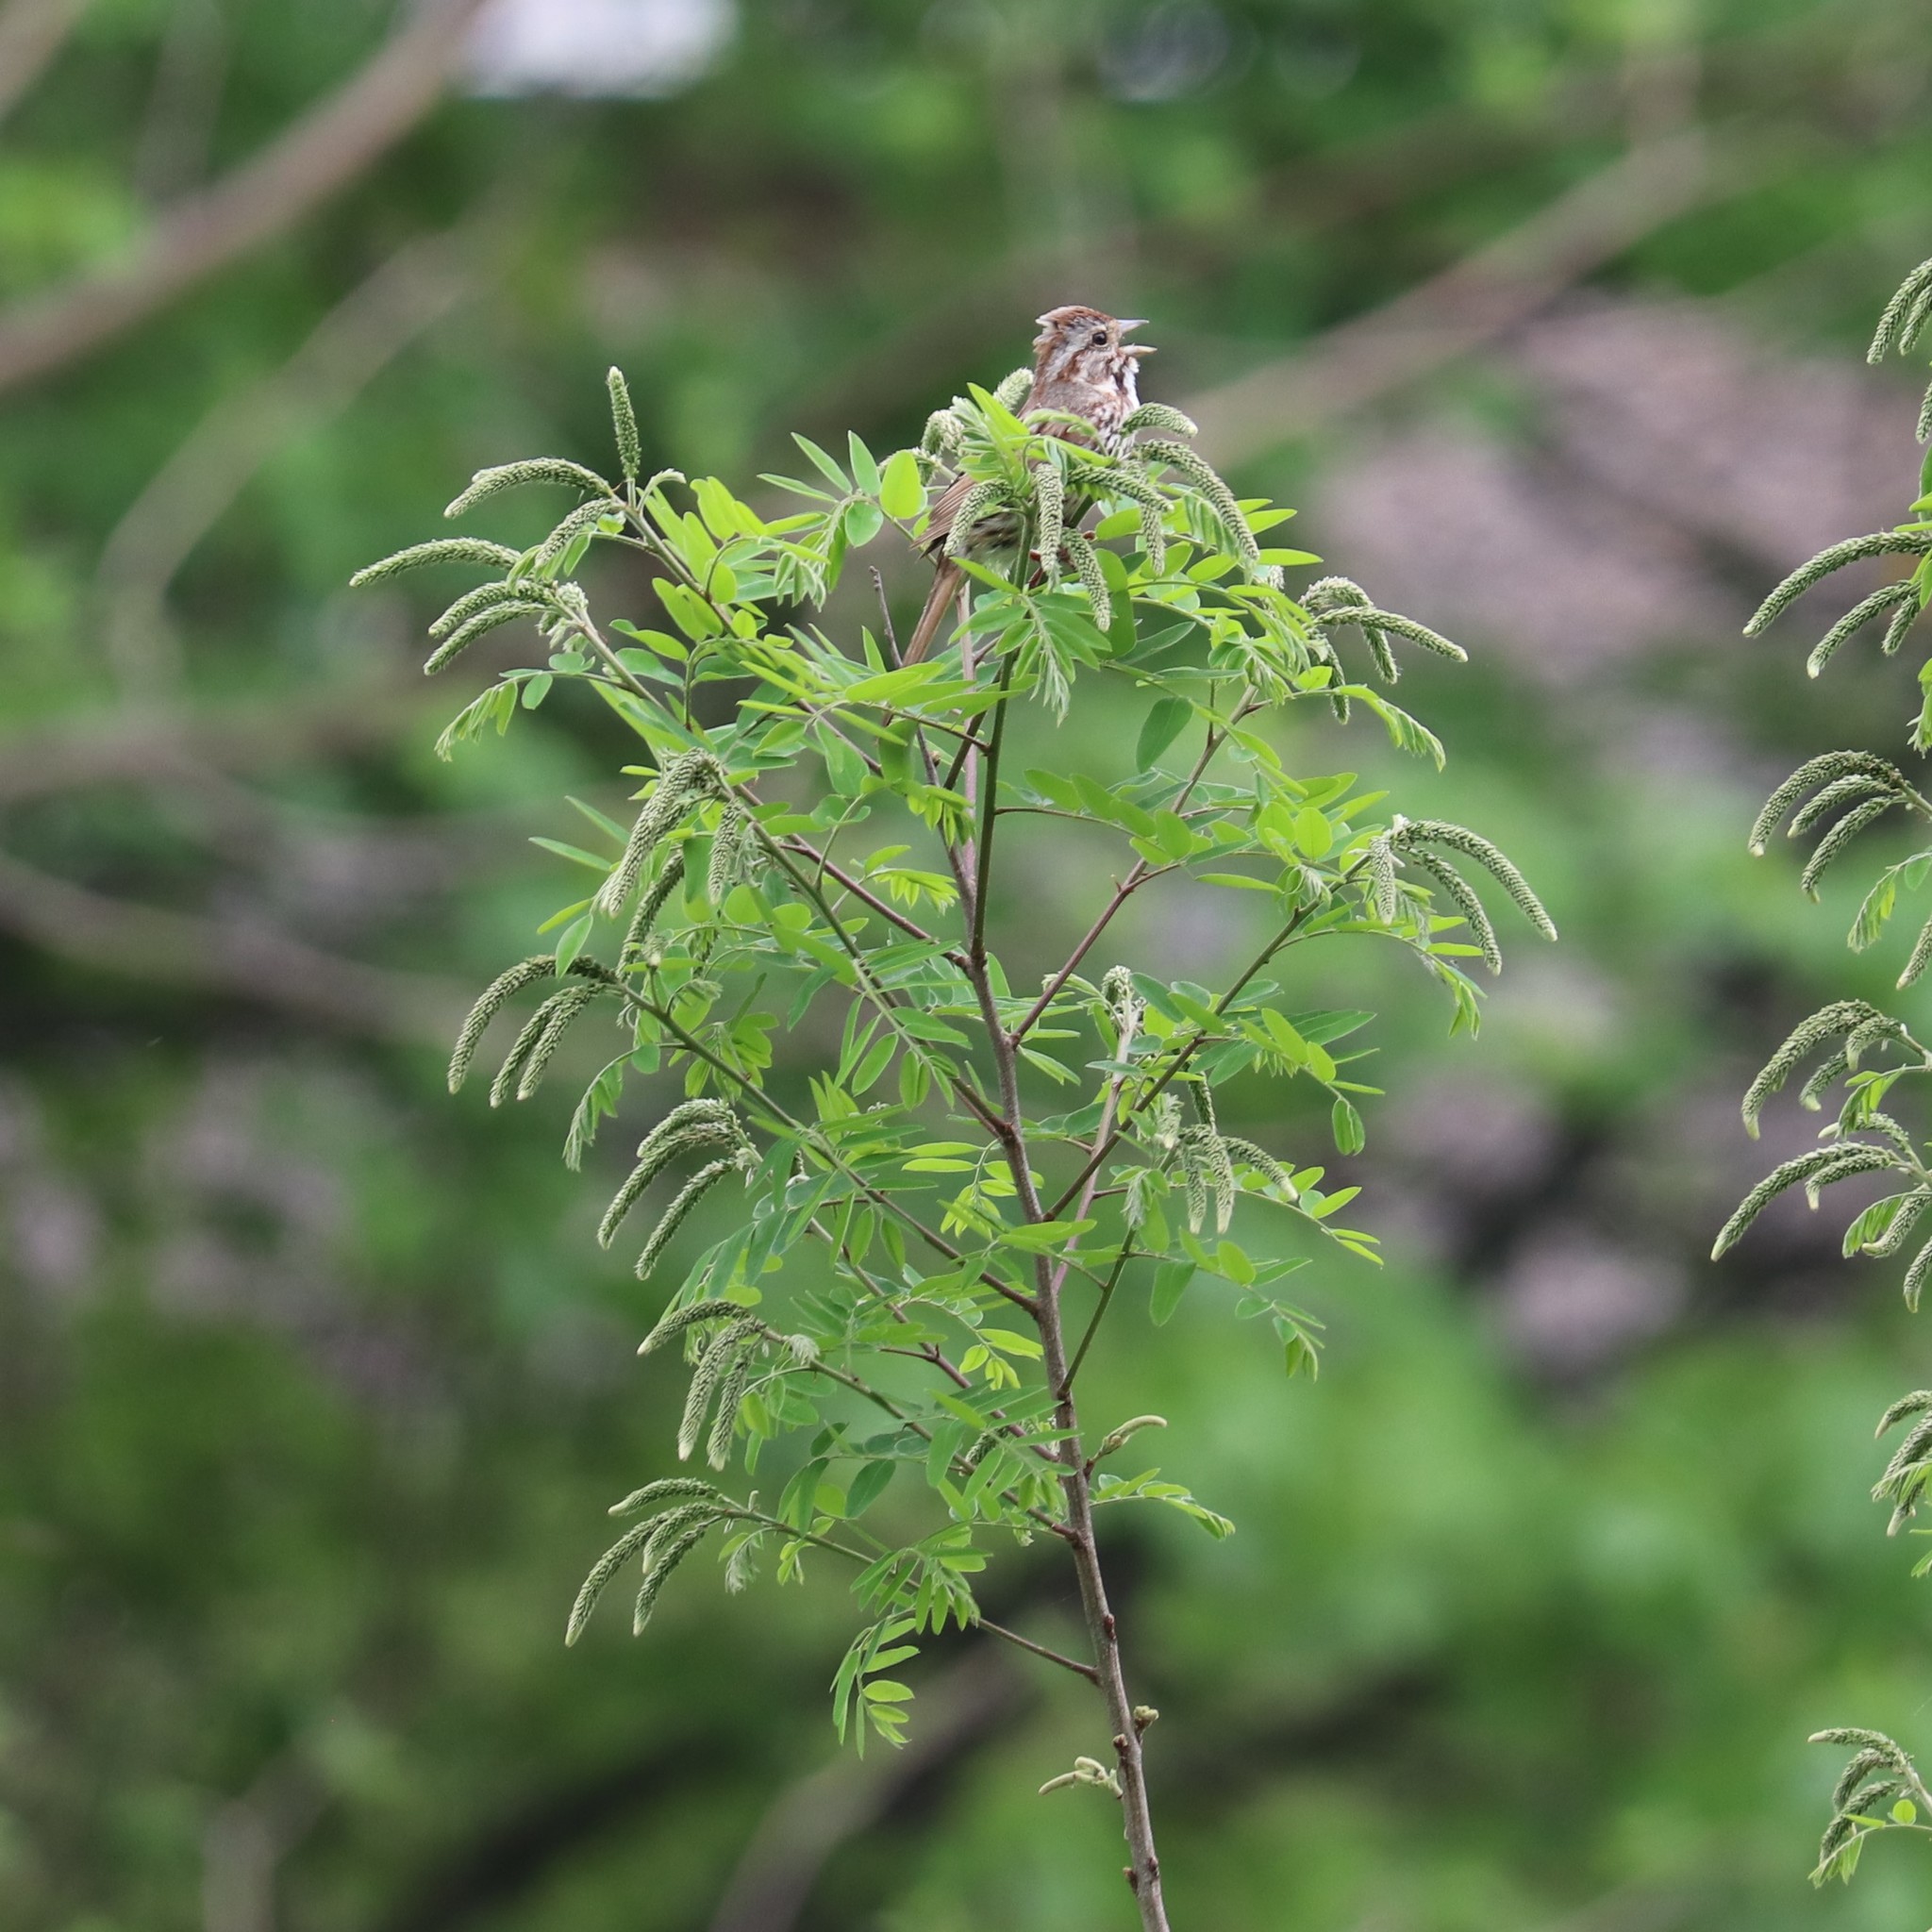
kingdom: Animalia
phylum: Chordata
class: Aves
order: Passeriformes
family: Passerellidae
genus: Melospiza
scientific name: Melospiza melodia
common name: Song sparrow
